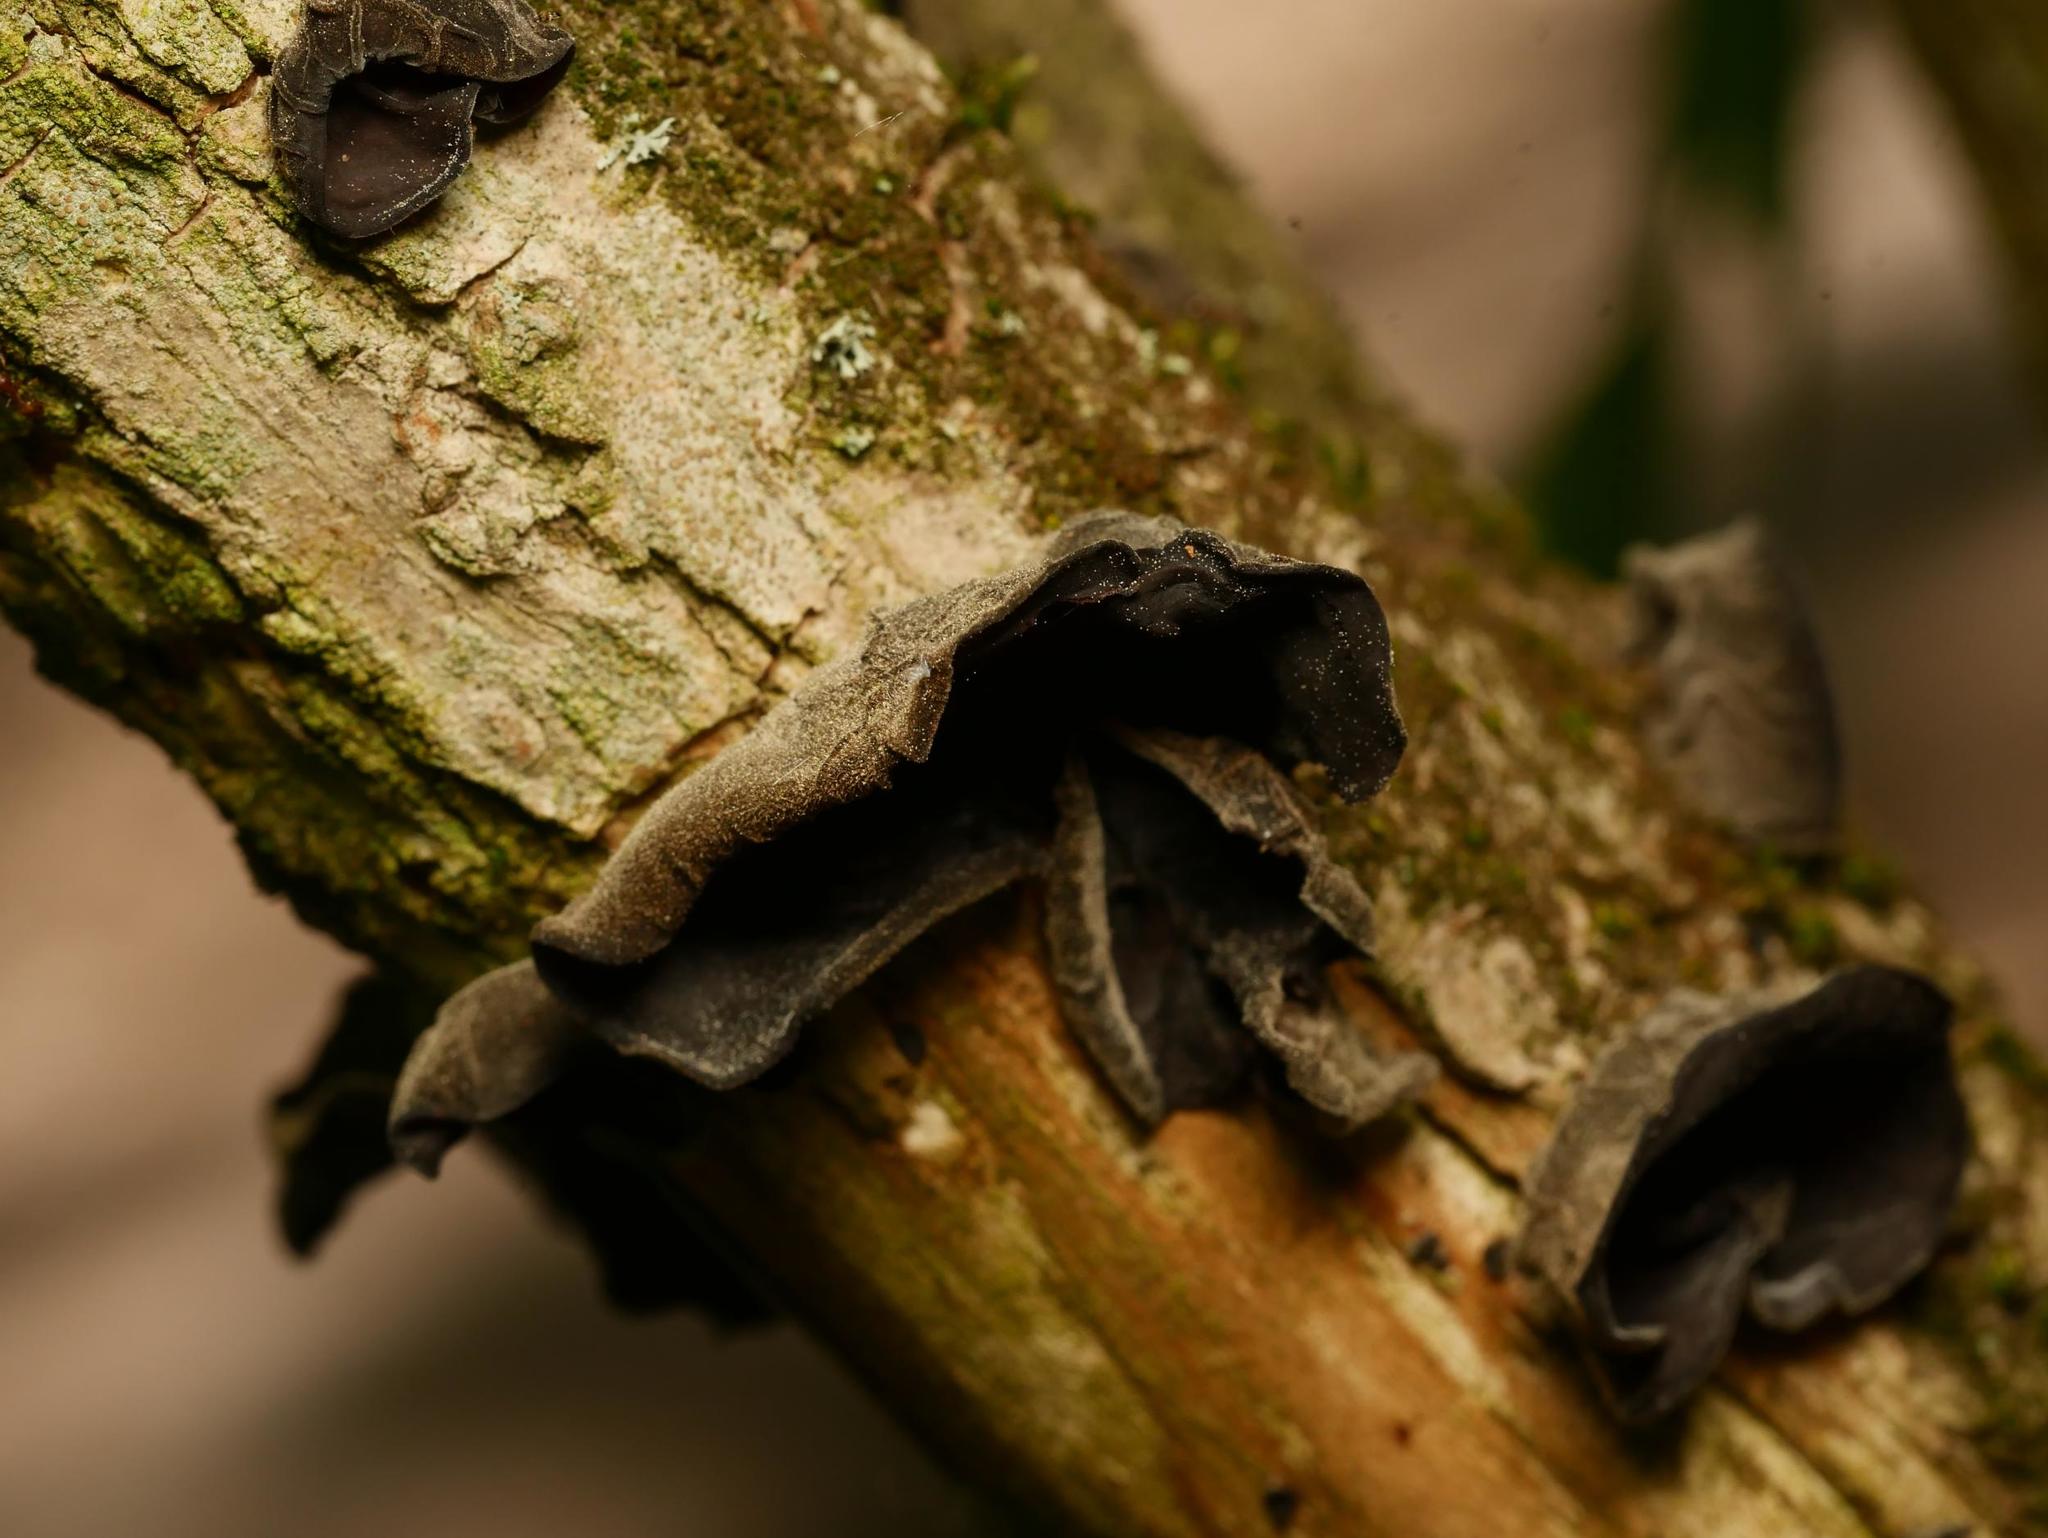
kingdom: Fungi
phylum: Basidiomycota
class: Agaricomycetes
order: Auriculariales
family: Auriculariaceae
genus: Auricularia
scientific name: Auricularia auricula-judae
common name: Jelly ear
